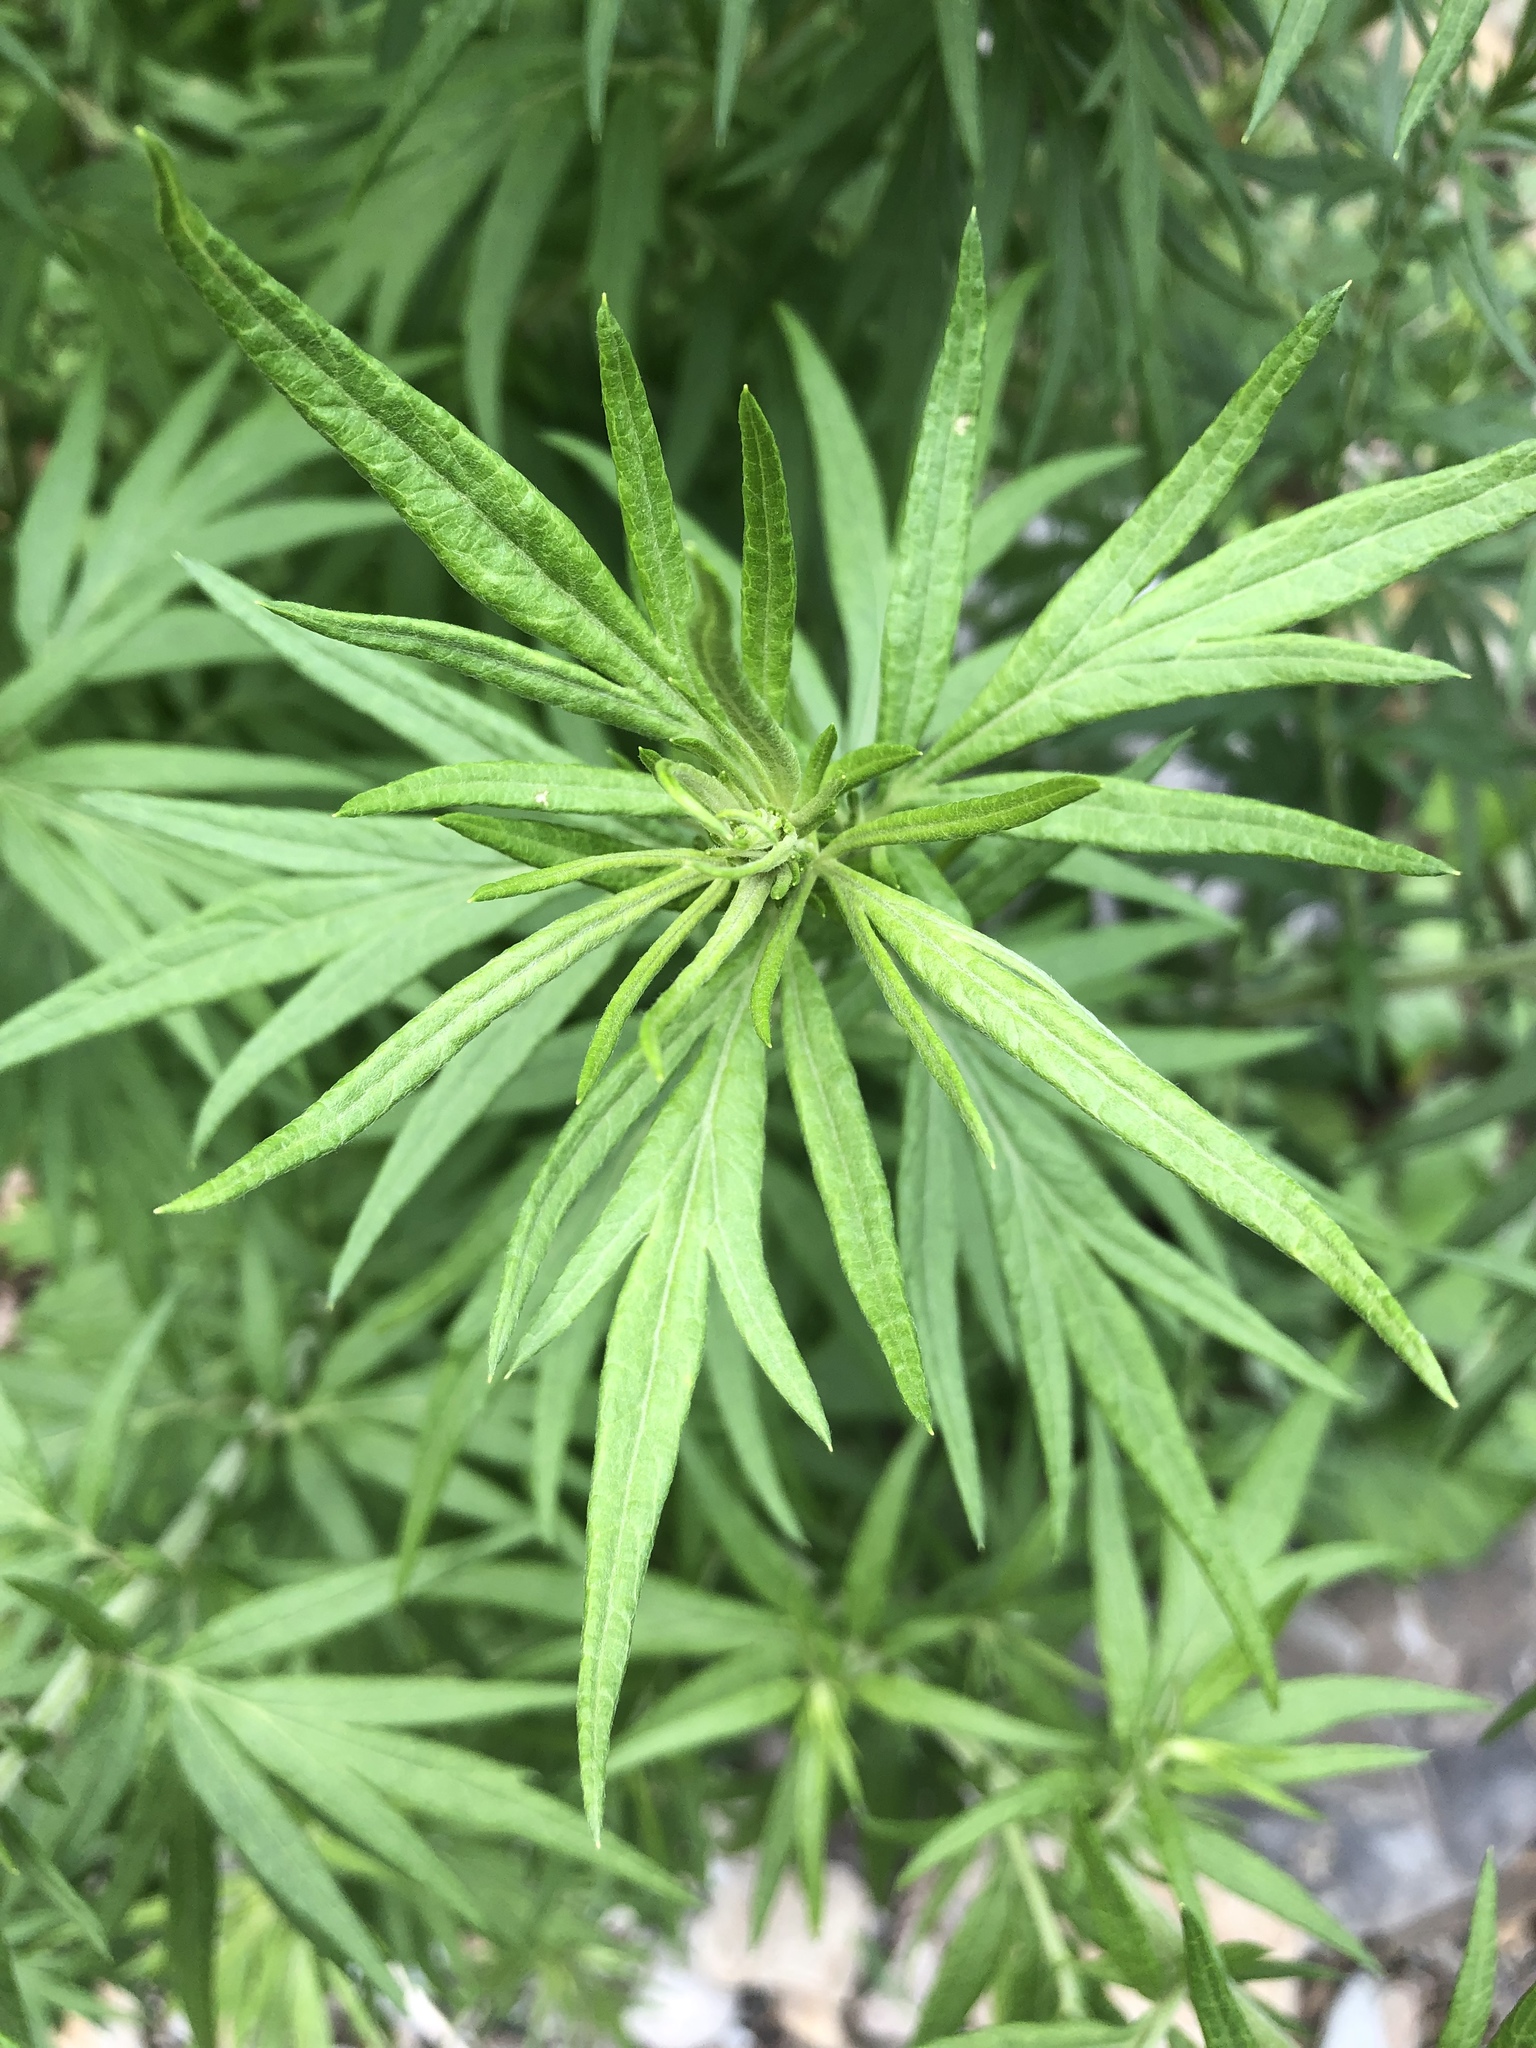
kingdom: Plantae
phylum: Tracheophyta
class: Magnoliopsida
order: Asterales
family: Asteraceae
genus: Artemisia
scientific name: Artemisia vulgaris
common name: Mugwort
